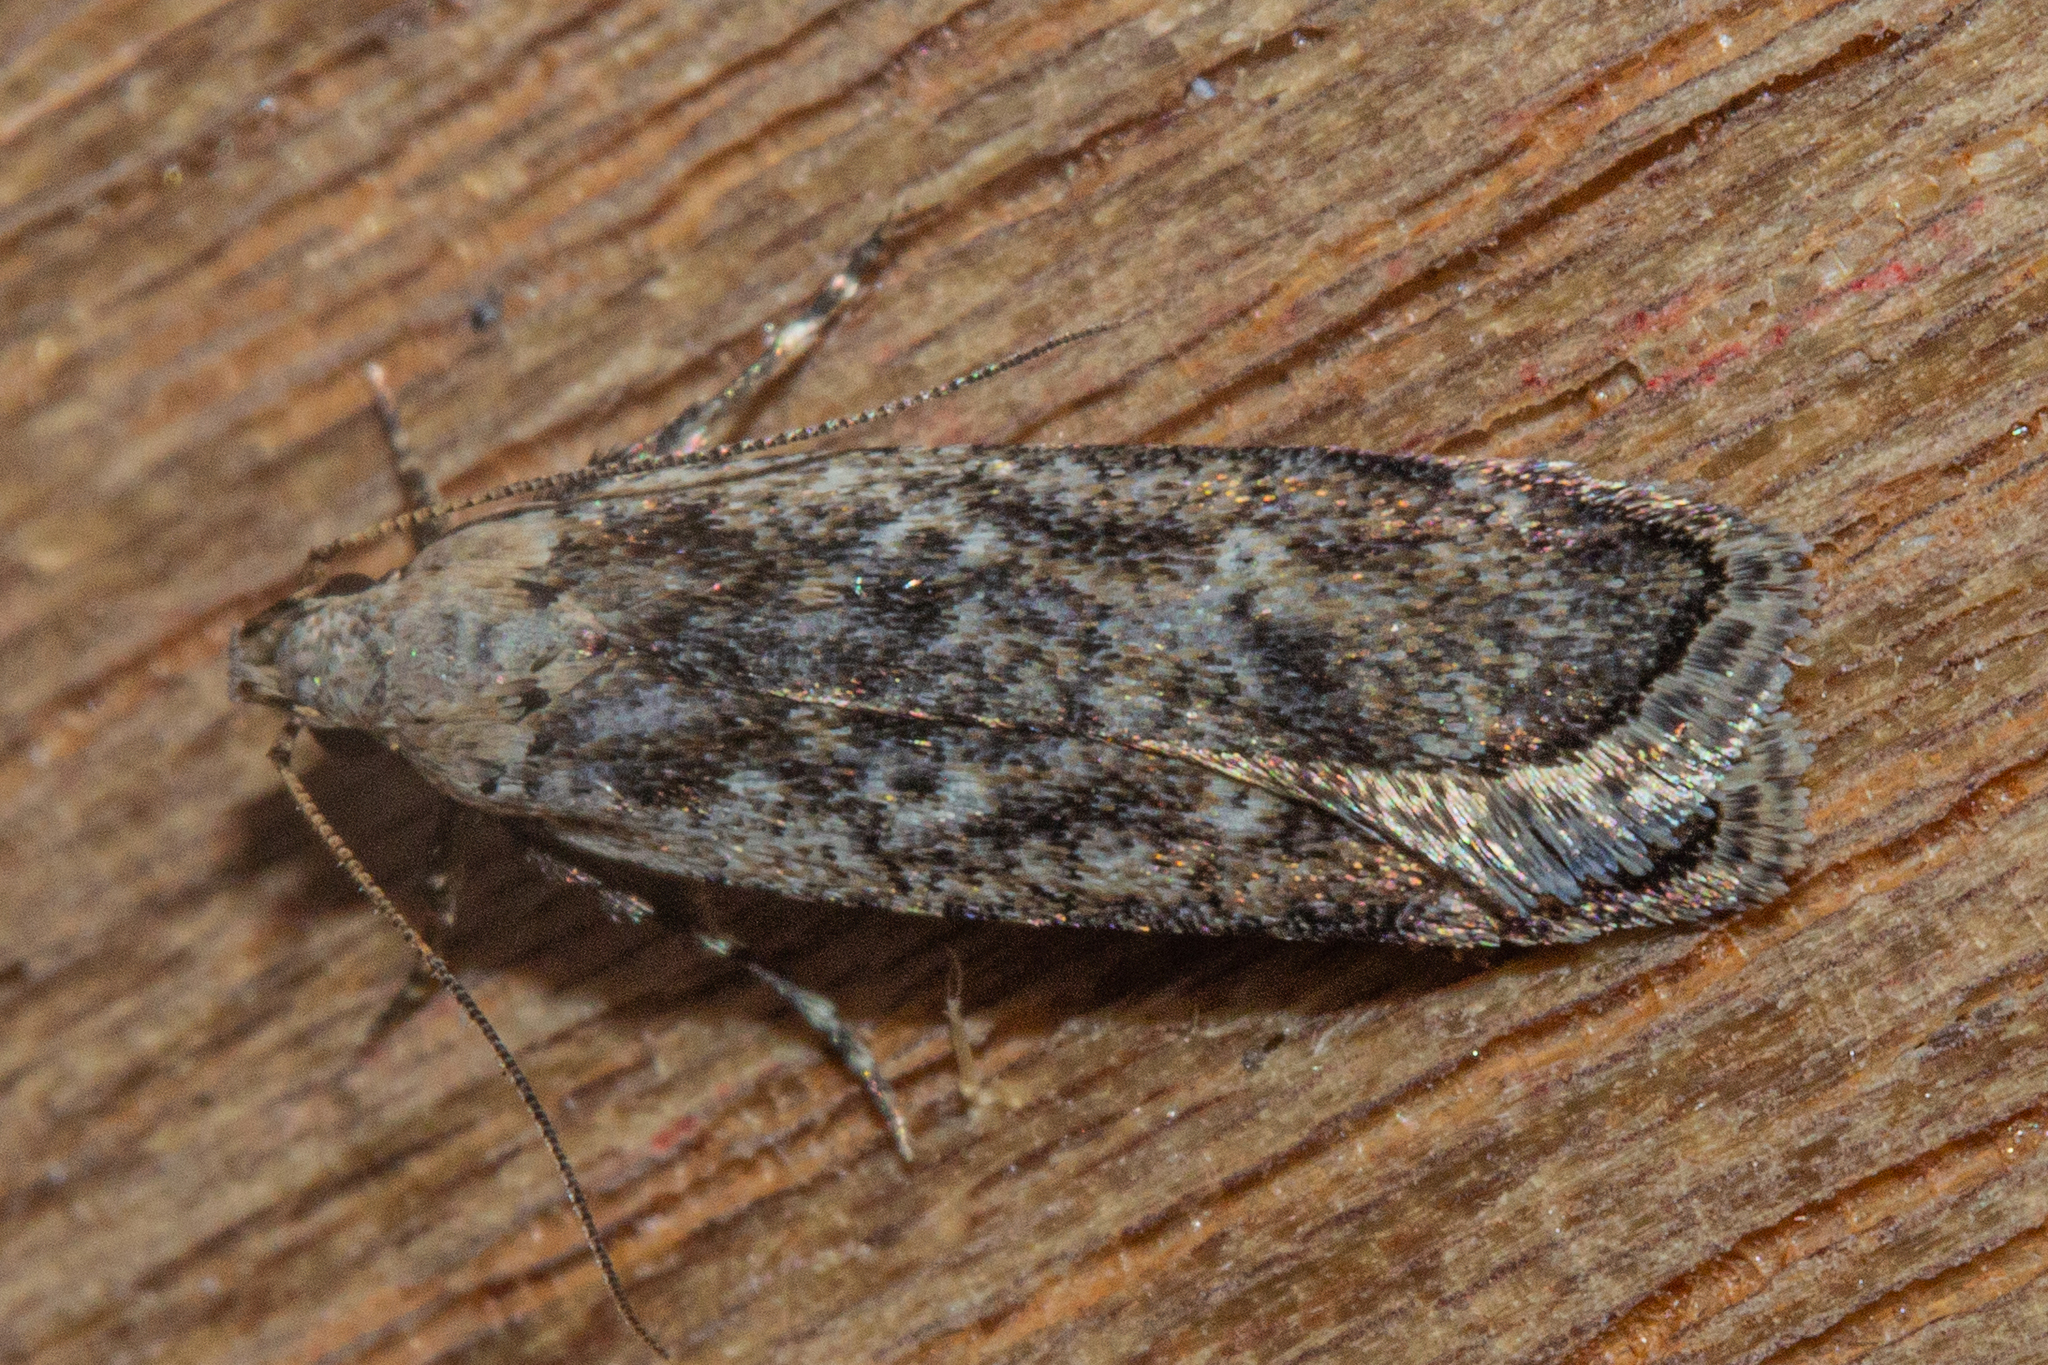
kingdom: Animalia
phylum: Arthropoda
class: Insecta
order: Lepidoptera
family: Gelechiidae
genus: Anisoplaca
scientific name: Anisoplaca achyrota
